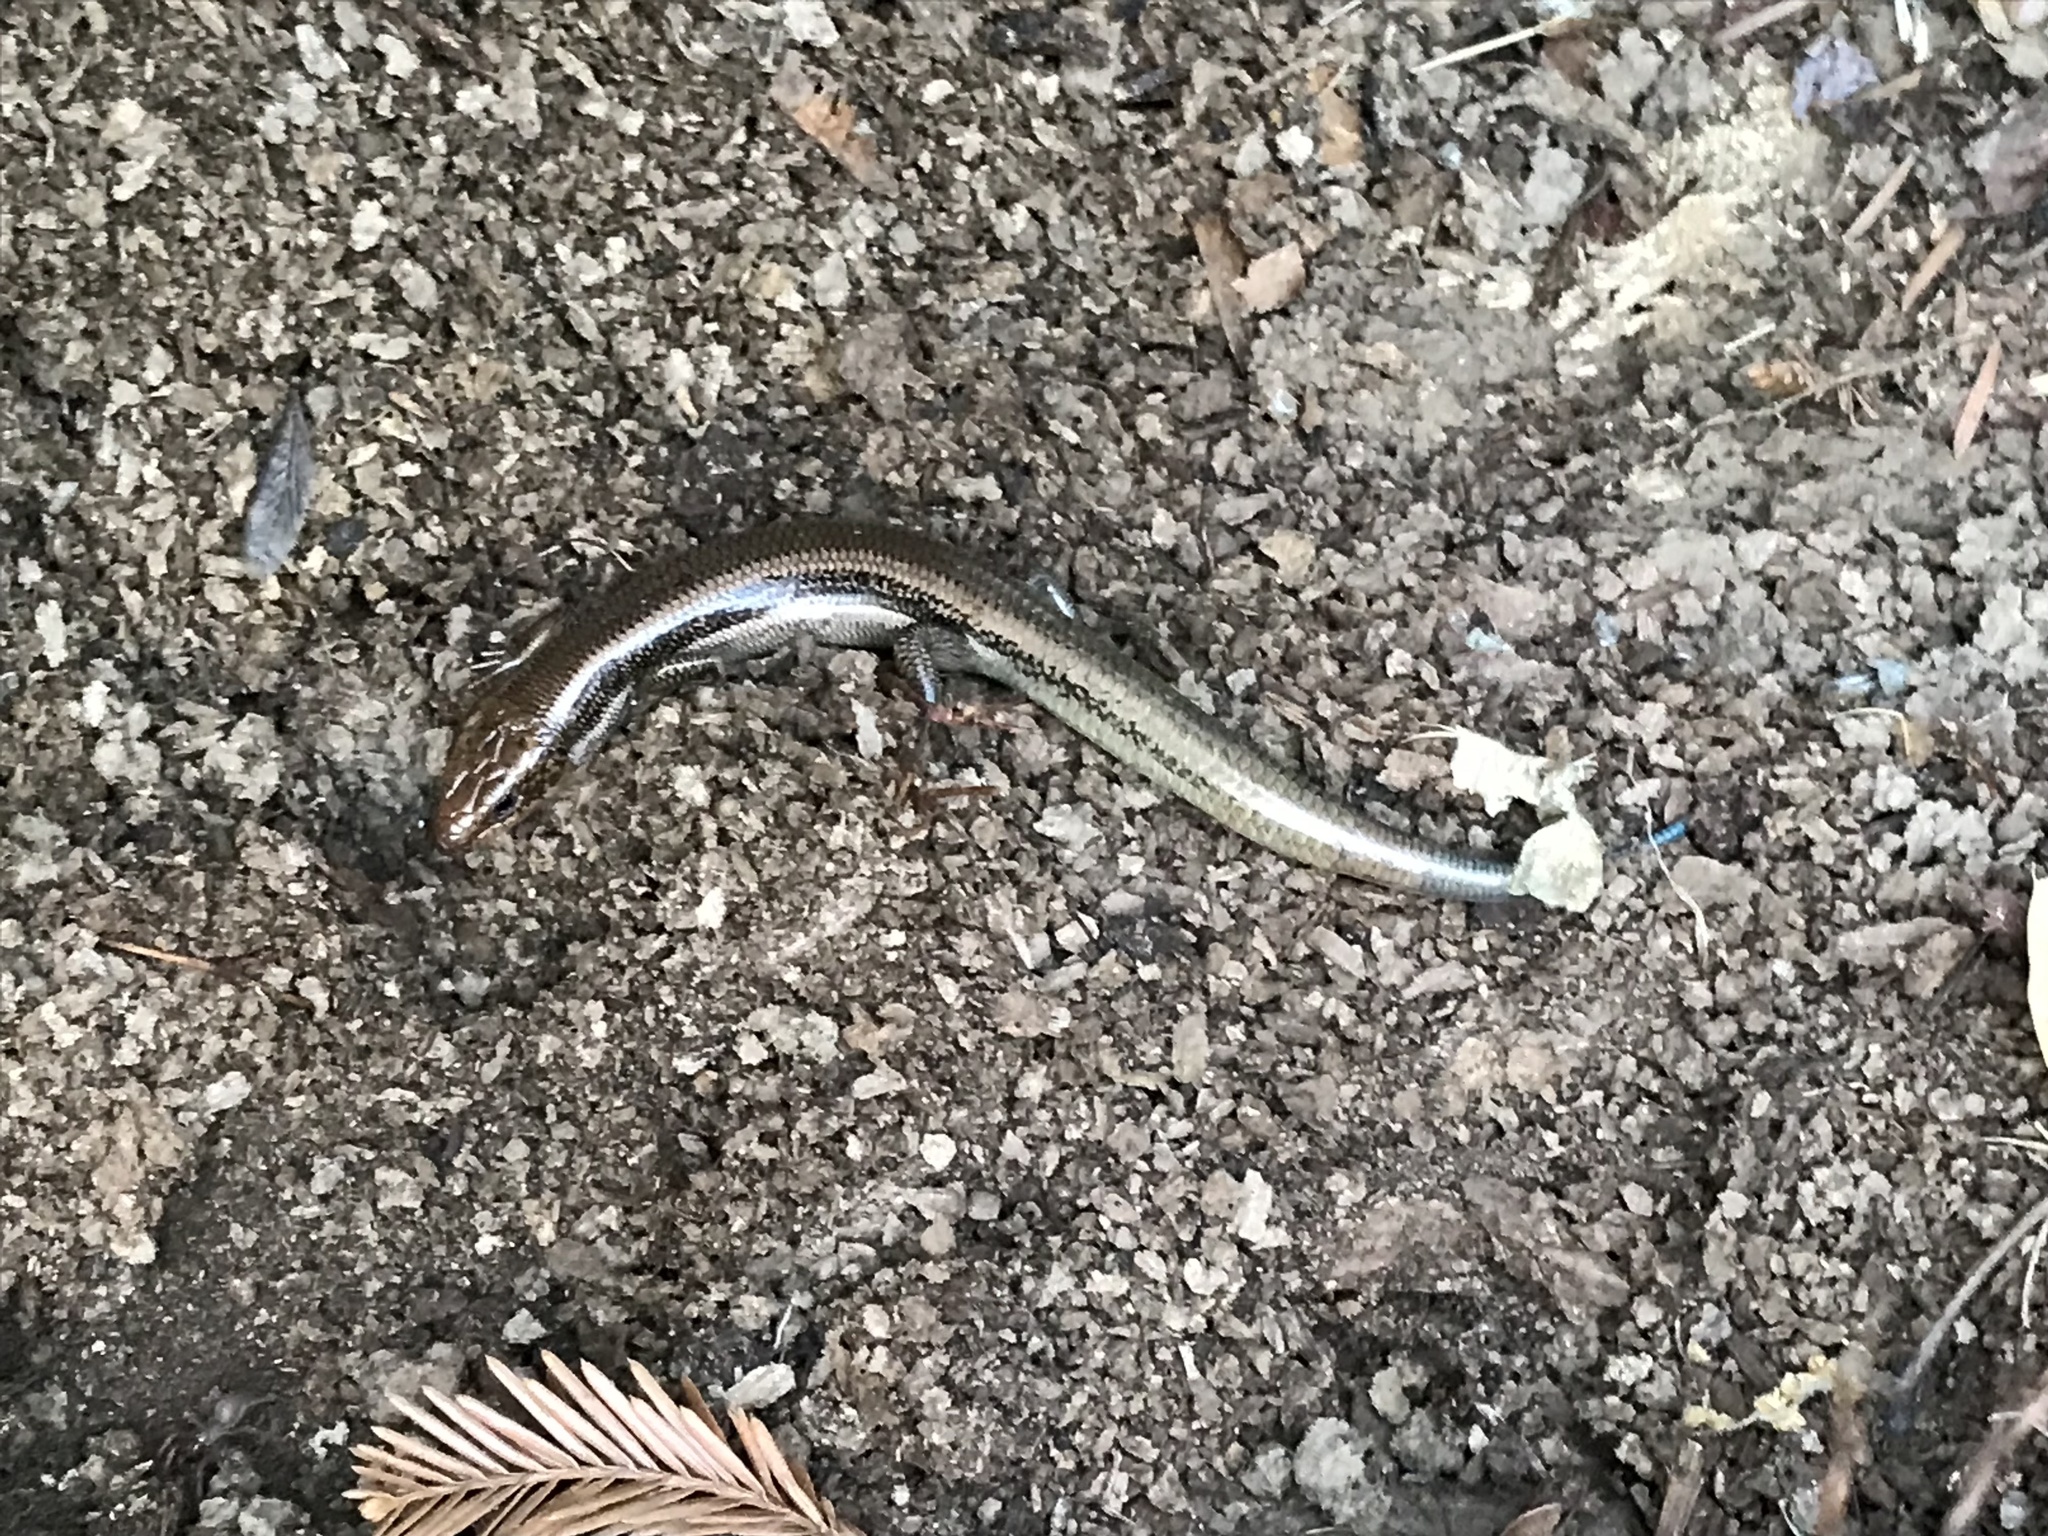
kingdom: Animalia
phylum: Chordata
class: Squamata
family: Scincidae
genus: Plestiodon
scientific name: Plestiodon skiltonianus
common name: Coronado island skink [interparietalis]
